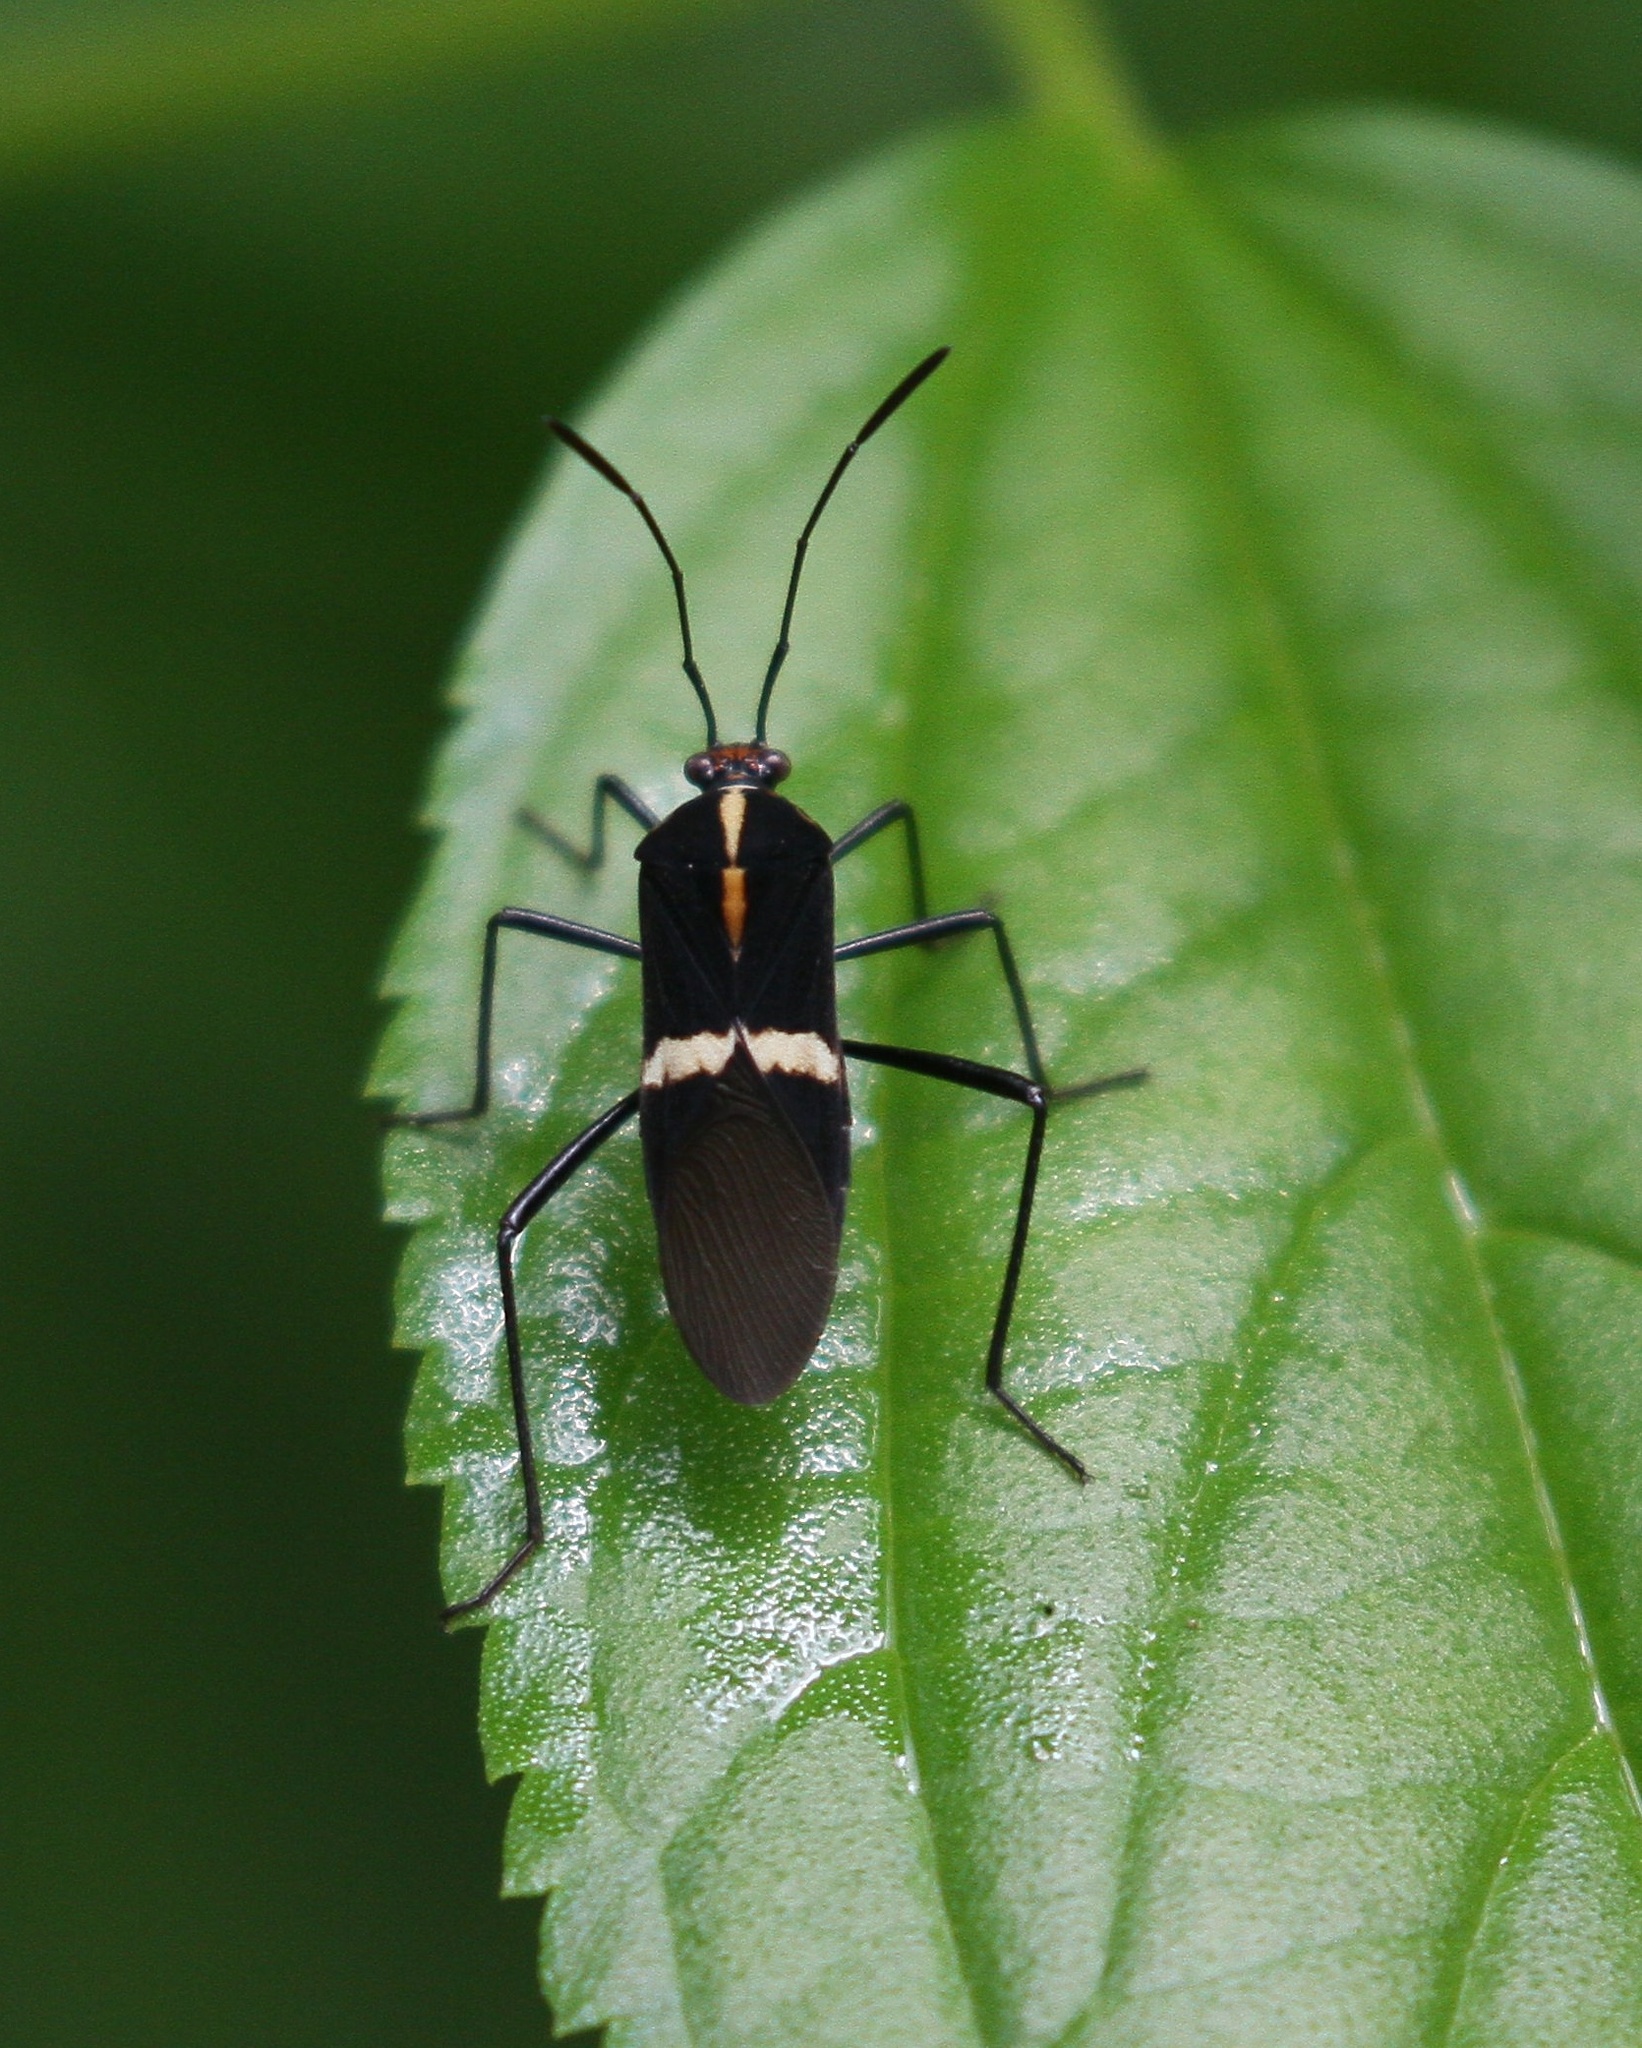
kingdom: Animalia
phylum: Arthropoda
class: Insecta
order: Hemiptera
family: Coreidae
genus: Hypselonotus
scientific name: Hypselonotus interruptus
